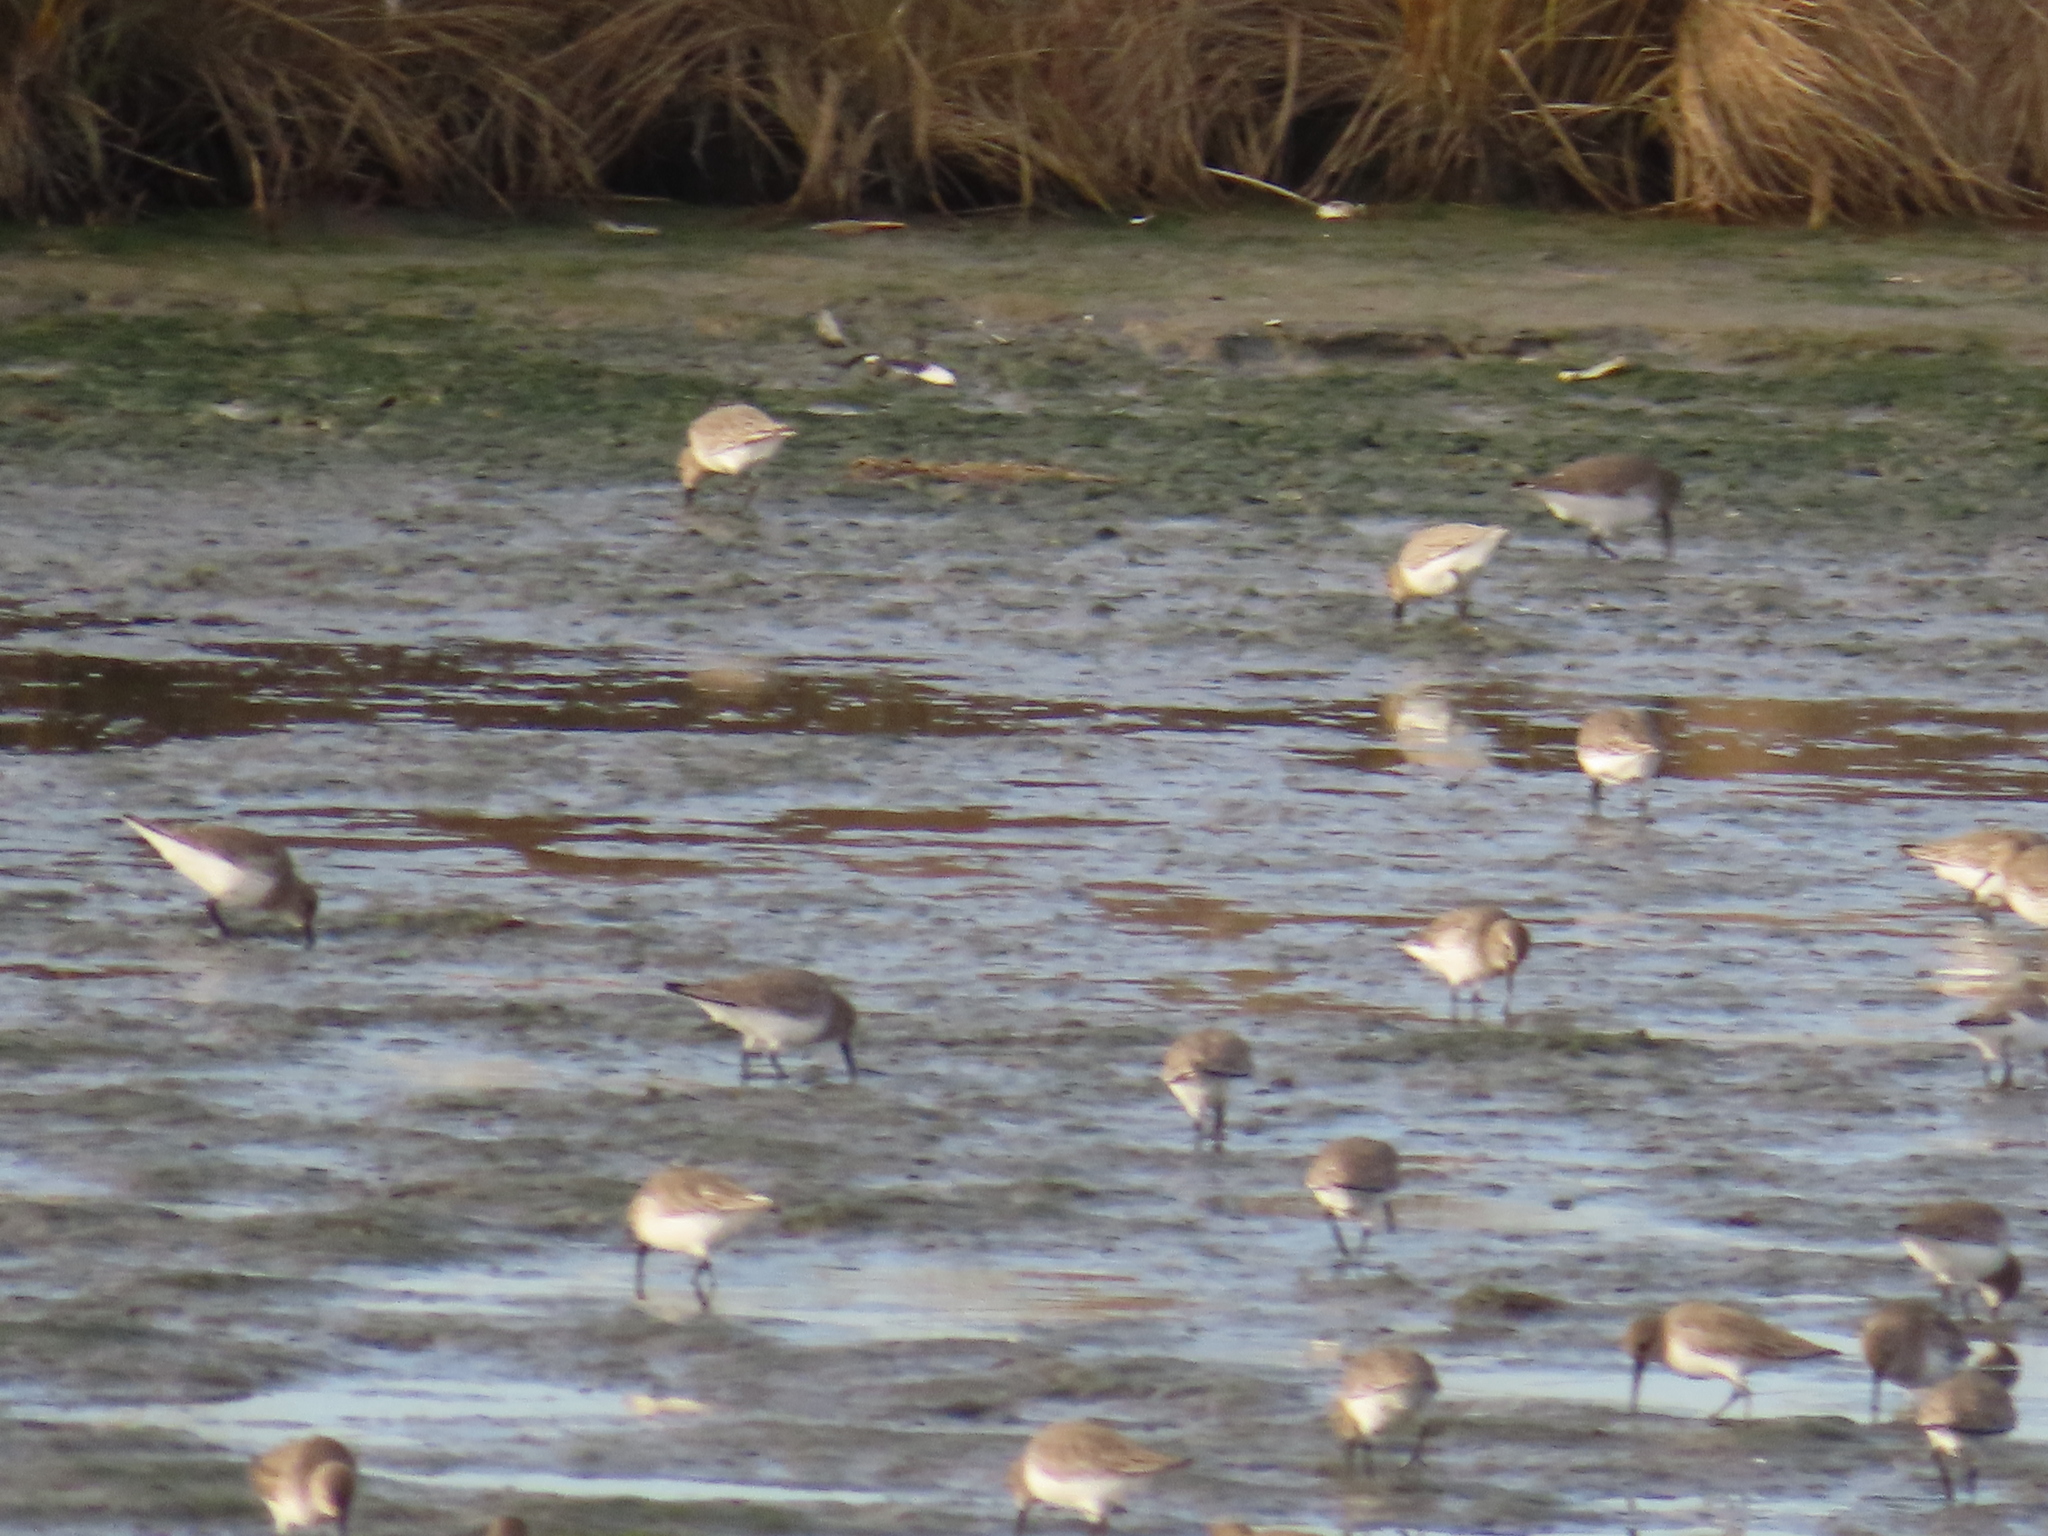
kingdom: Animalia
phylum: Chordata
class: Aves
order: Charadriiformes
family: Scolopacidae
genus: Calidris
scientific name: Calidris alpina
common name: Dunlin
